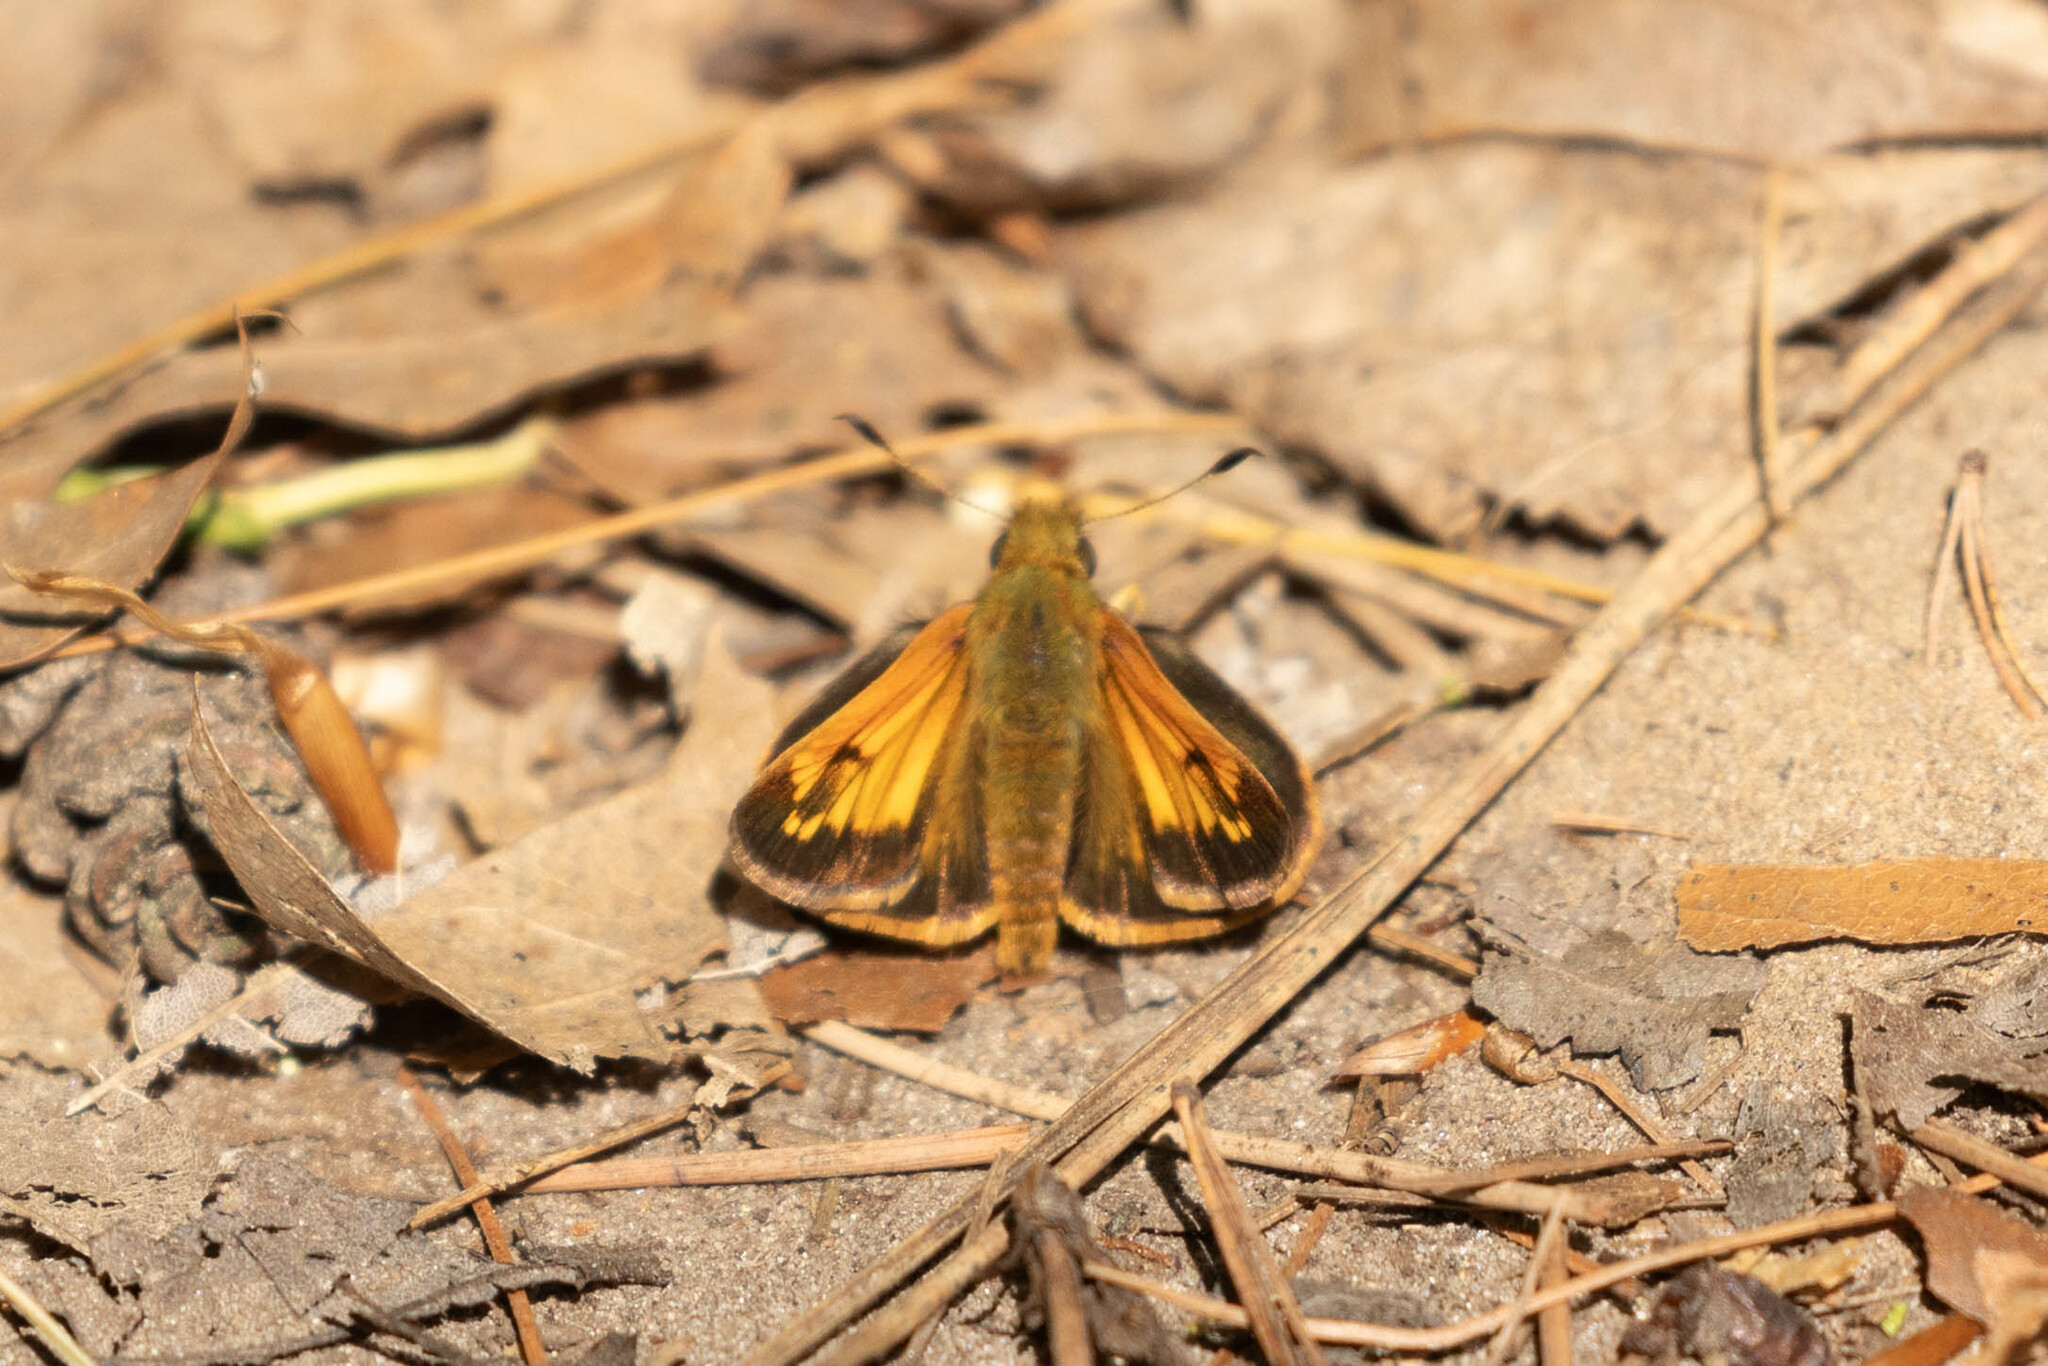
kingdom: Animalia
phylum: Arthropoda
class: Insecta
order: Lepidoptera
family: Hesperiidae
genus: Lon
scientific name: Lon hobomok
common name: Hobomok skipper
